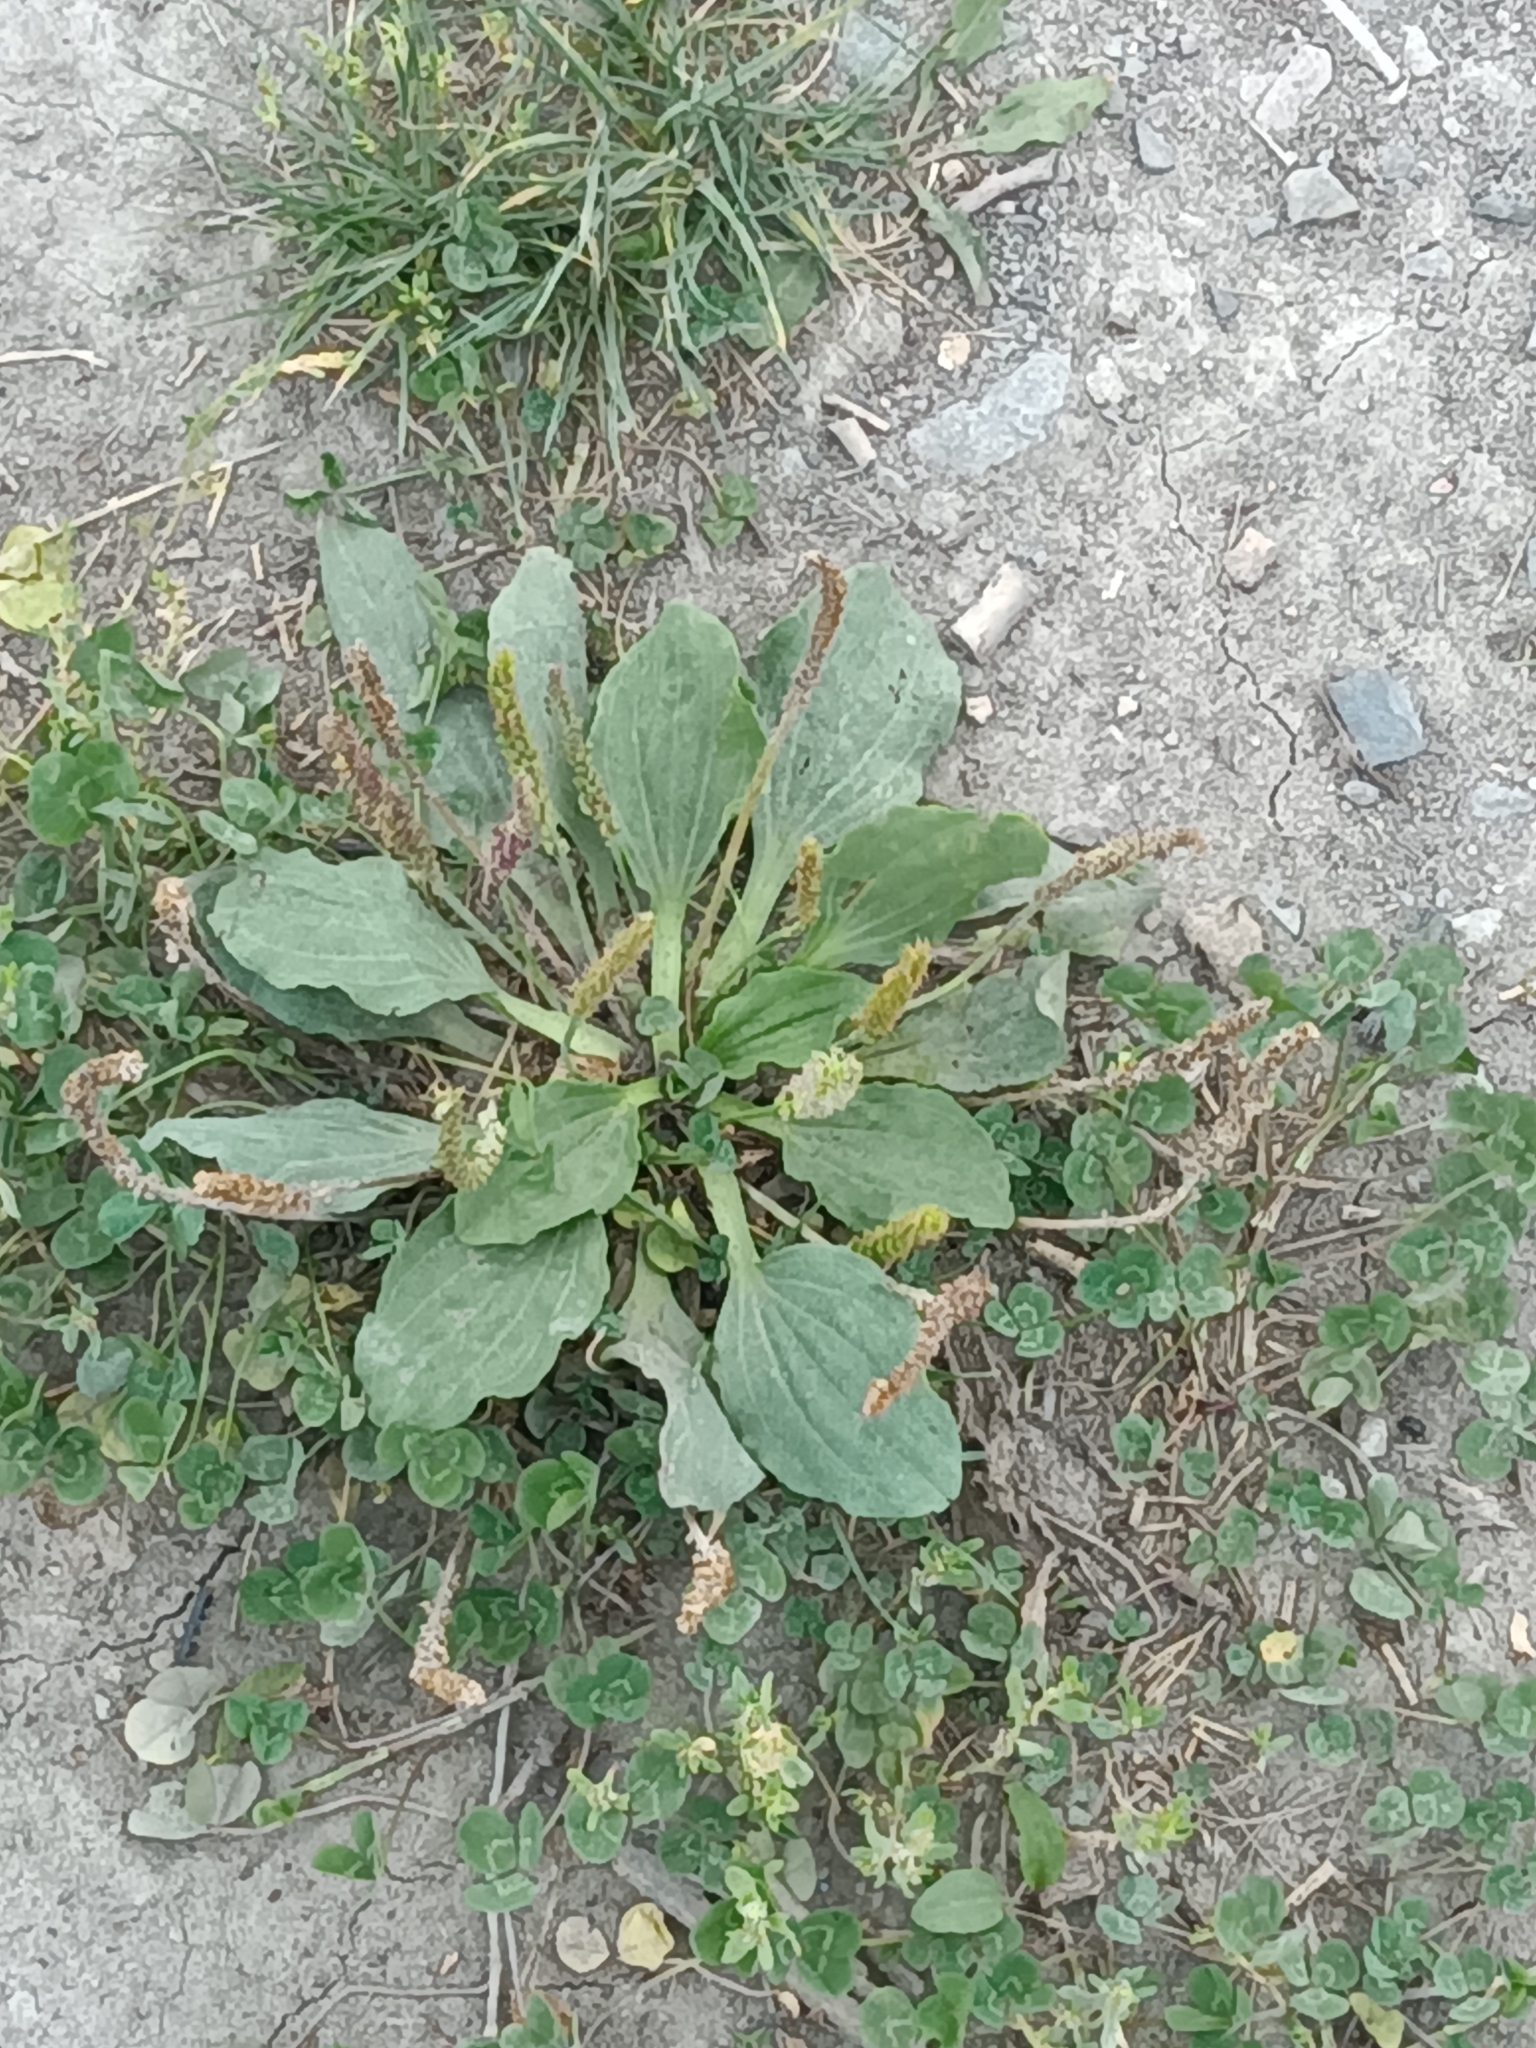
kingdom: Plantae
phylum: Tracheophyta
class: Magnoliopsida
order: Lamiales
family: Plantaginaceae
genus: Plantago
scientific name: Plantago major
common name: Common plantain
